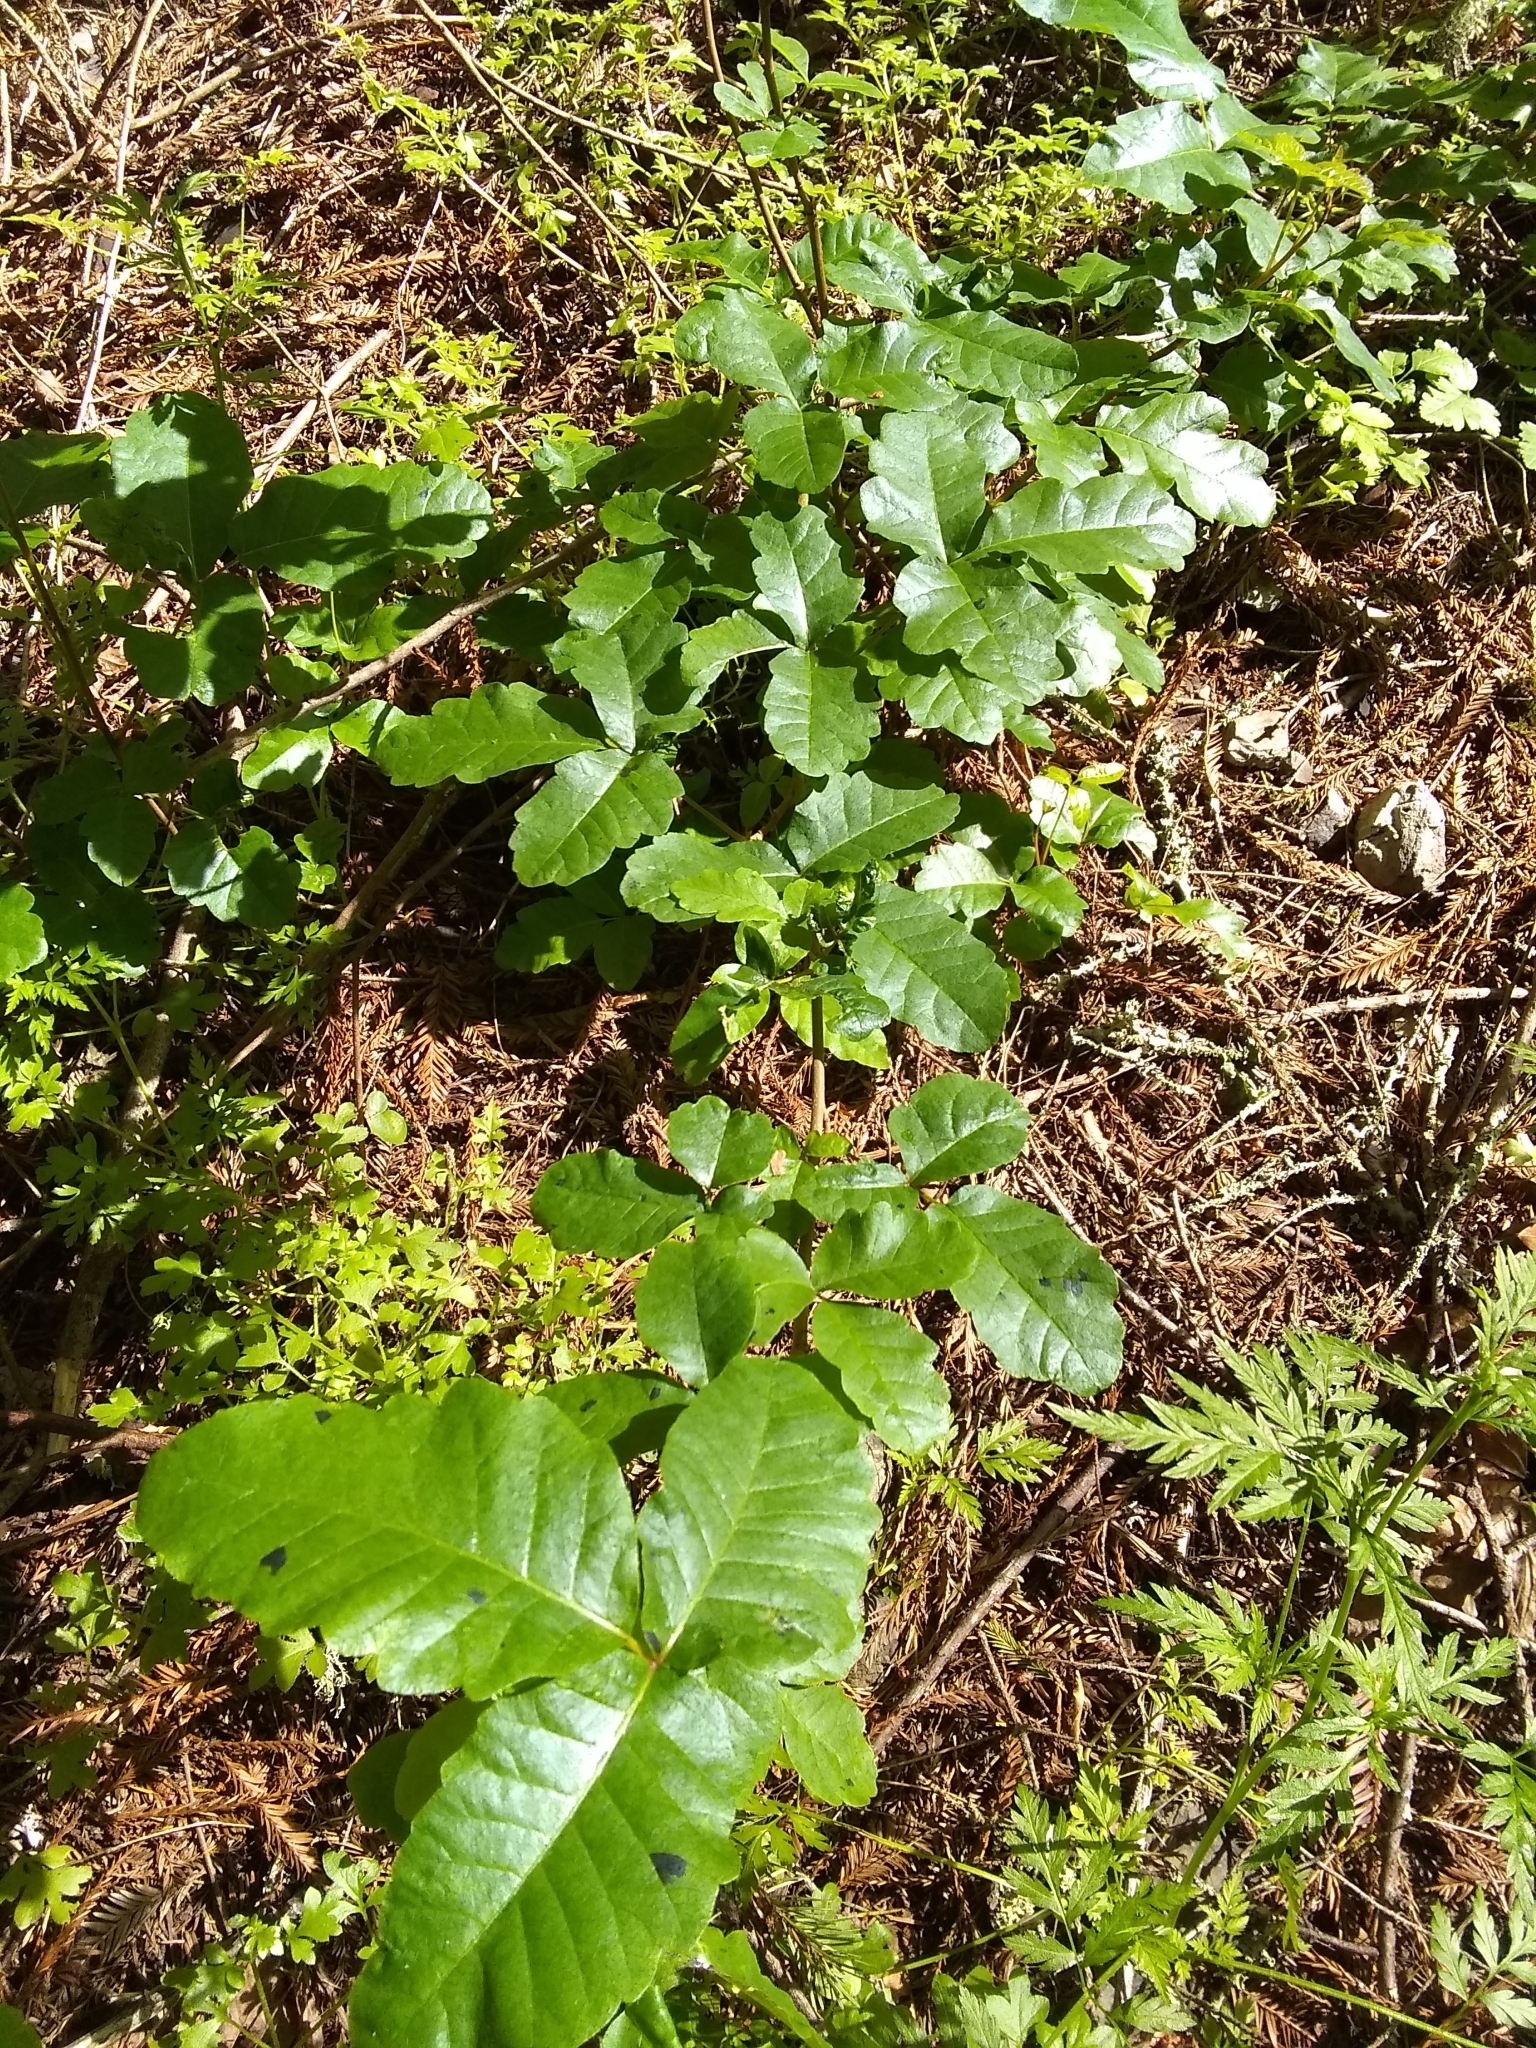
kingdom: Plantae
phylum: Tracheophyta
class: Magnoliopsida
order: Sapindales
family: Anacardiaceae
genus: Toxicodendron
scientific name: Toxicodendron diversilobum
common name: Pacific poison-oak
